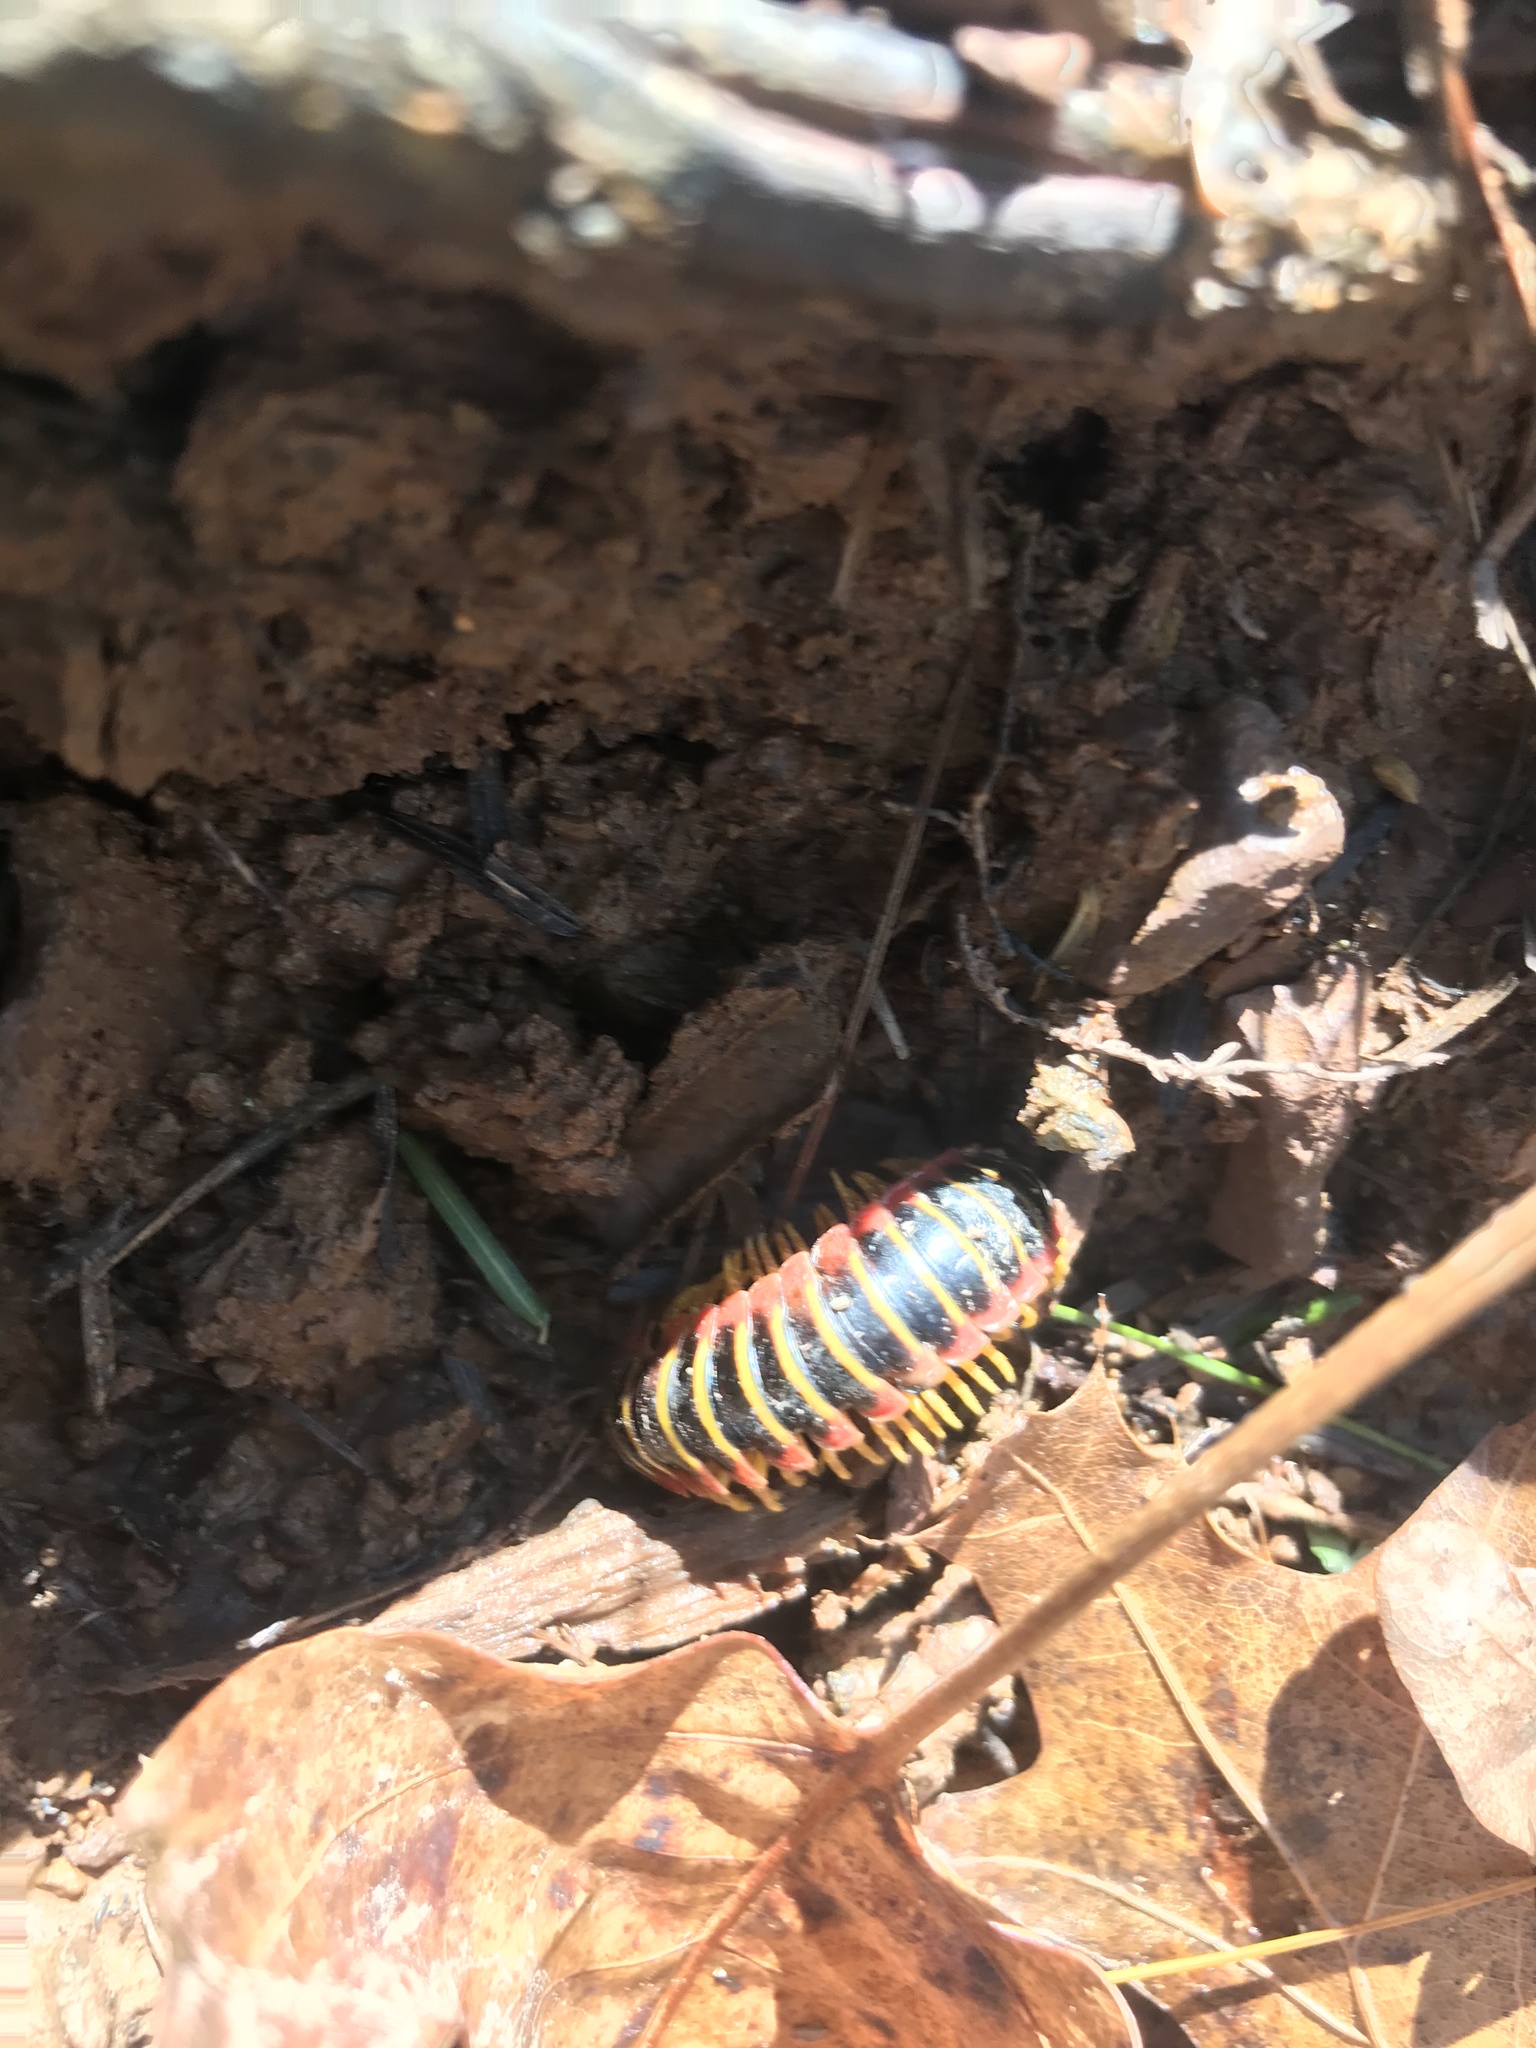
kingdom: Animalia
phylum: Arthropoda
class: Diplopoda
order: Polydesmida
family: Xystodesmidae
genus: Apheloria
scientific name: Apheloria virginiensis
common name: Black-and-gold flat millipede
